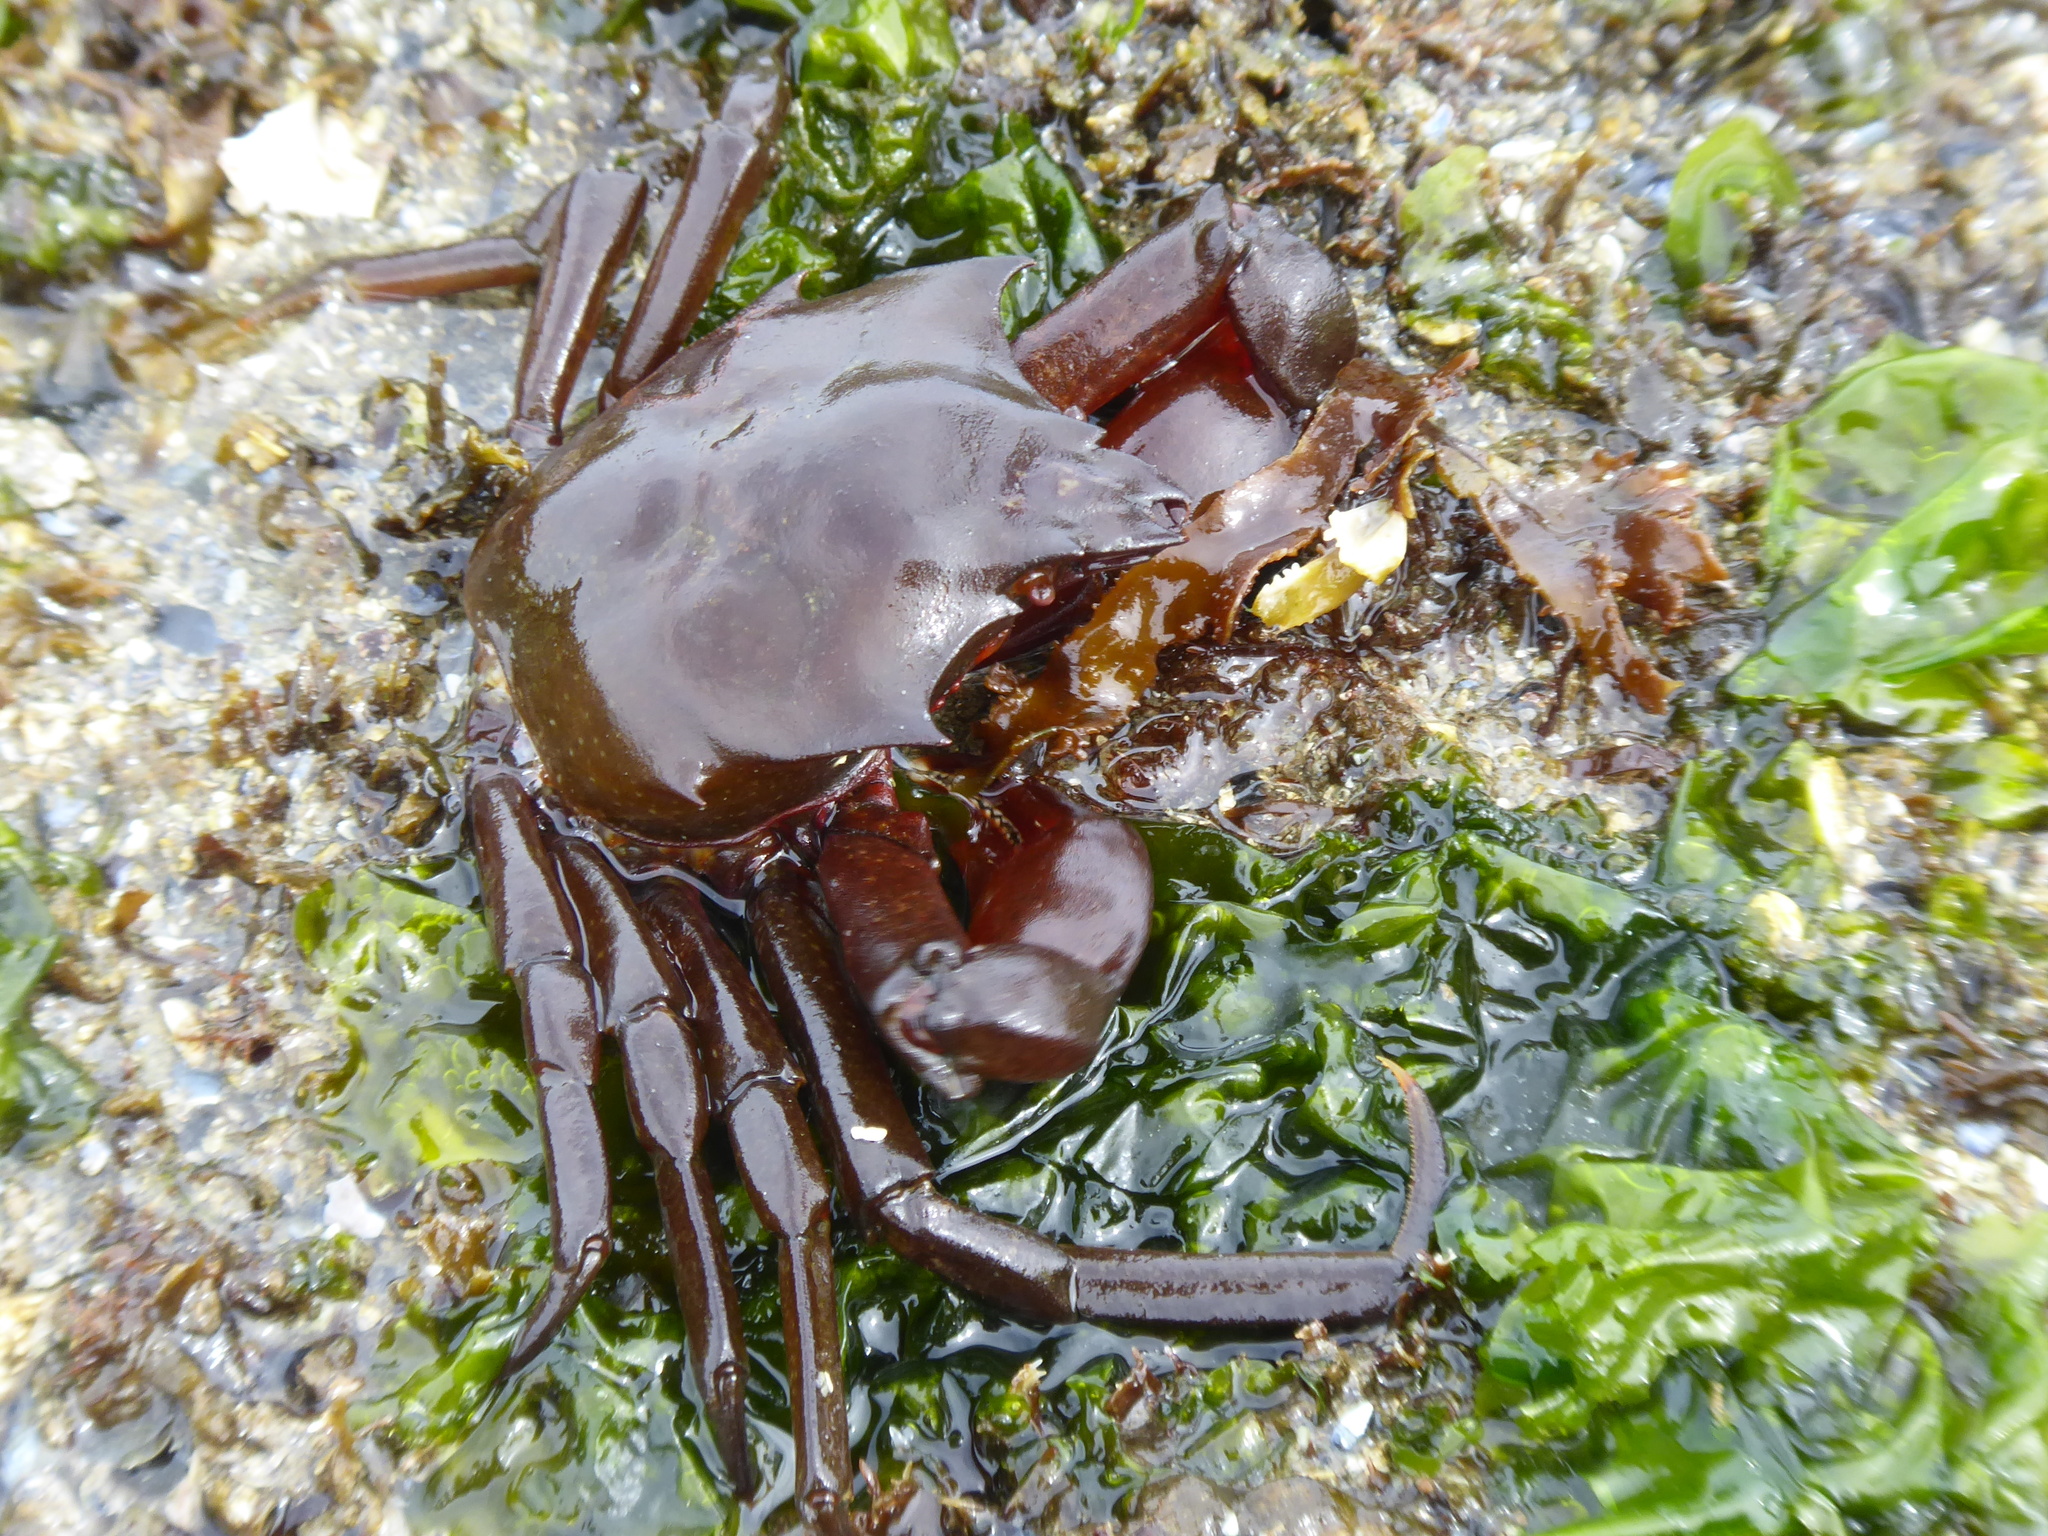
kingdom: Animalia
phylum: Arthropoda
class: Malacostraca
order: Decapoda
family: Epialtidae
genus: Pugettia
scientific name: Pugettia producta
